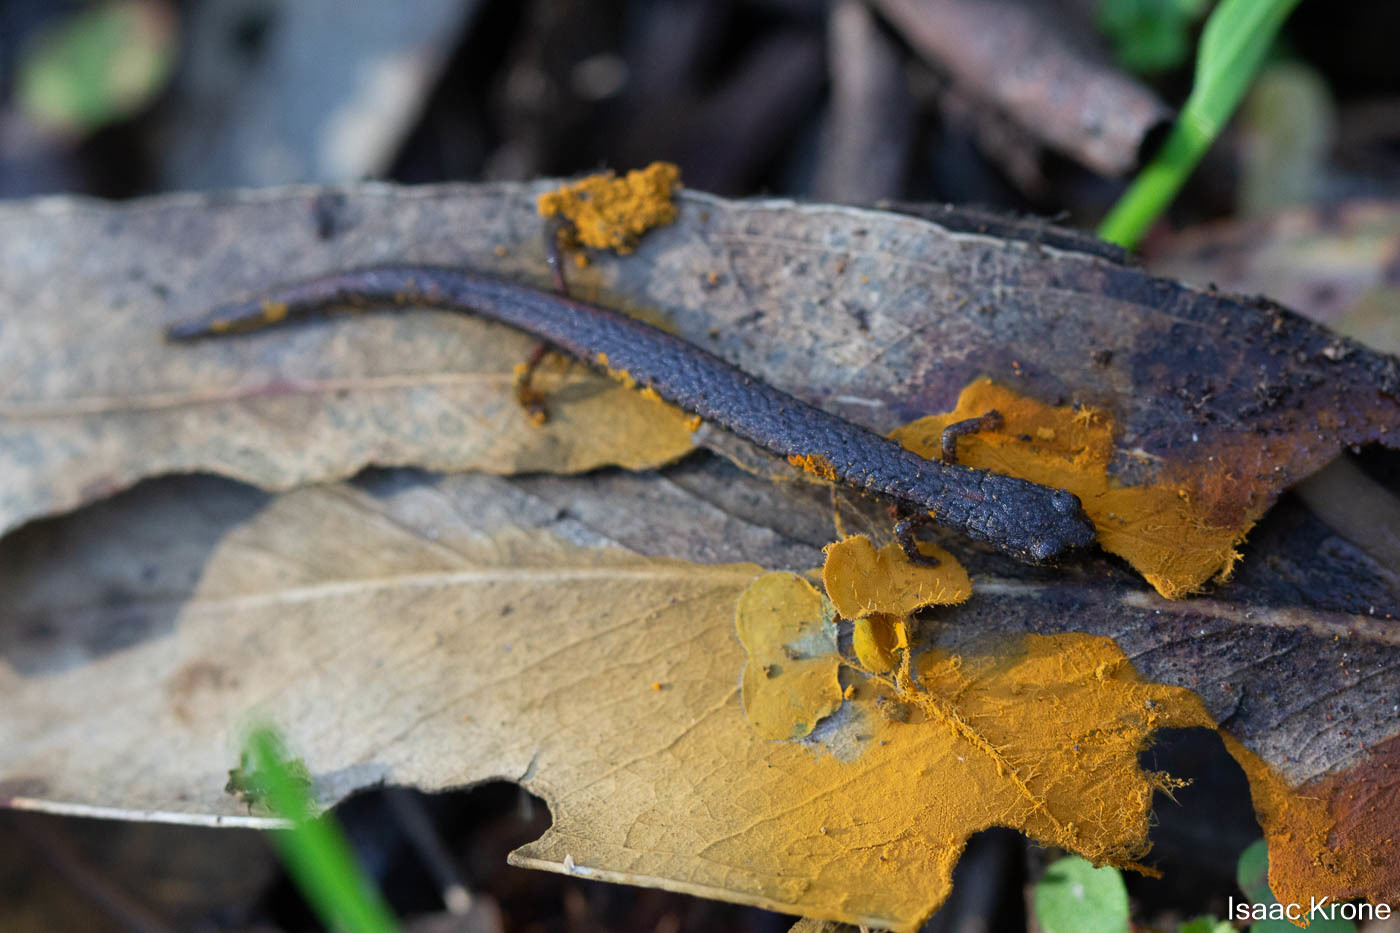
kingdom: Animalia
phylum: Chordata
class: Amphibia
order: Caudata
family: Plethodontidae
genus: Batrachoseps
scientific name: Batrachoseps attenuatus
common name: California slender salamander
